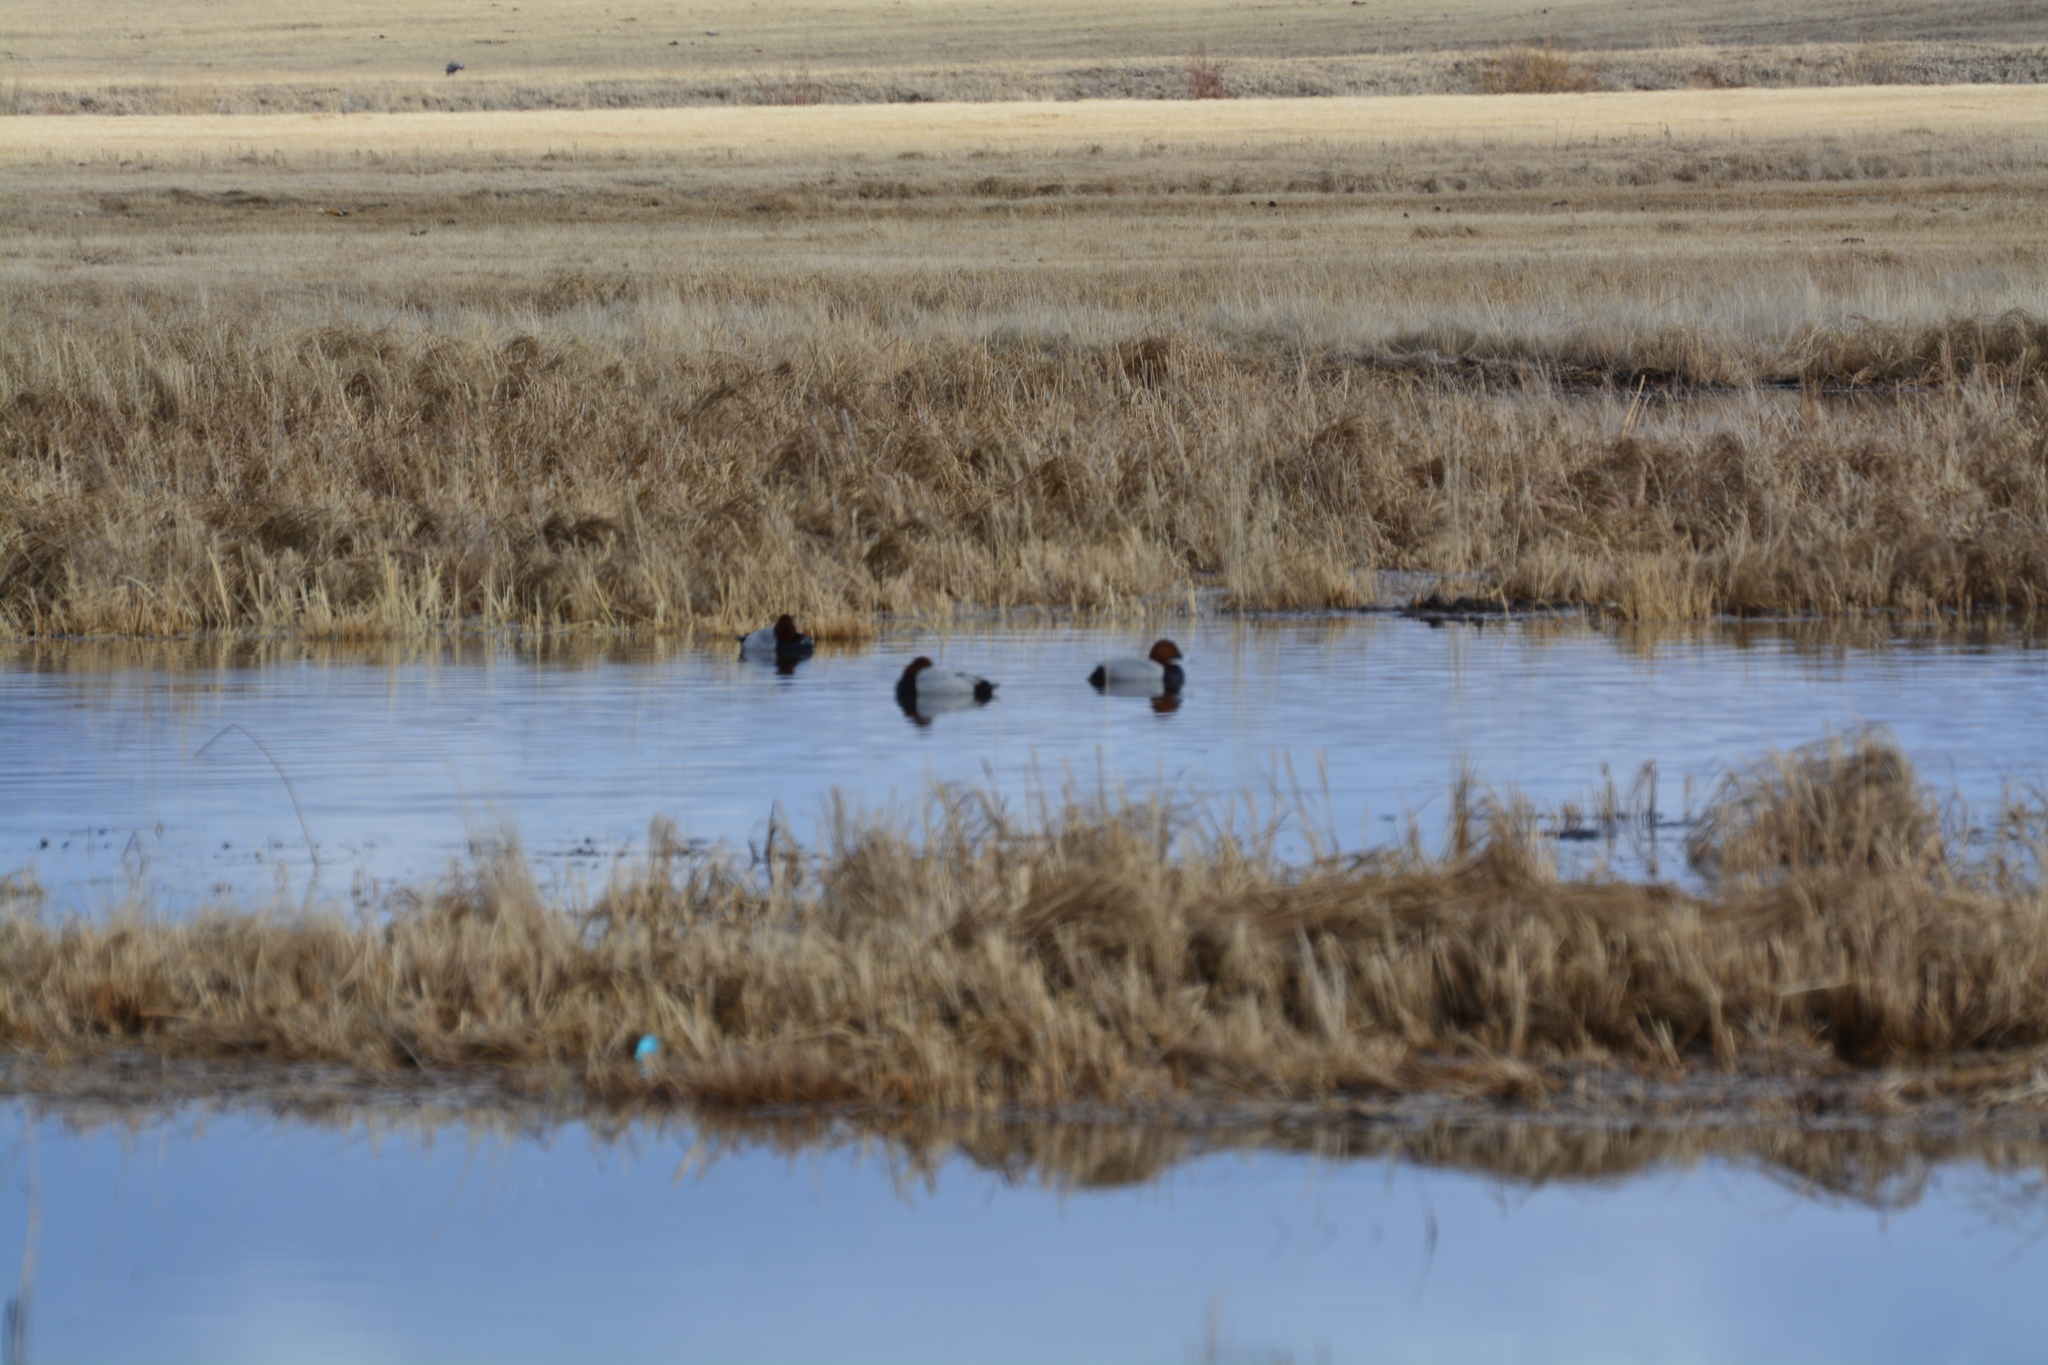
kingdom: Animalia
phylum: Chordata
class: Aves
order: Anseriformes
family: Anatidae
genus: Aythya
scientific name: Aythya ferina
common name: Common pochard
